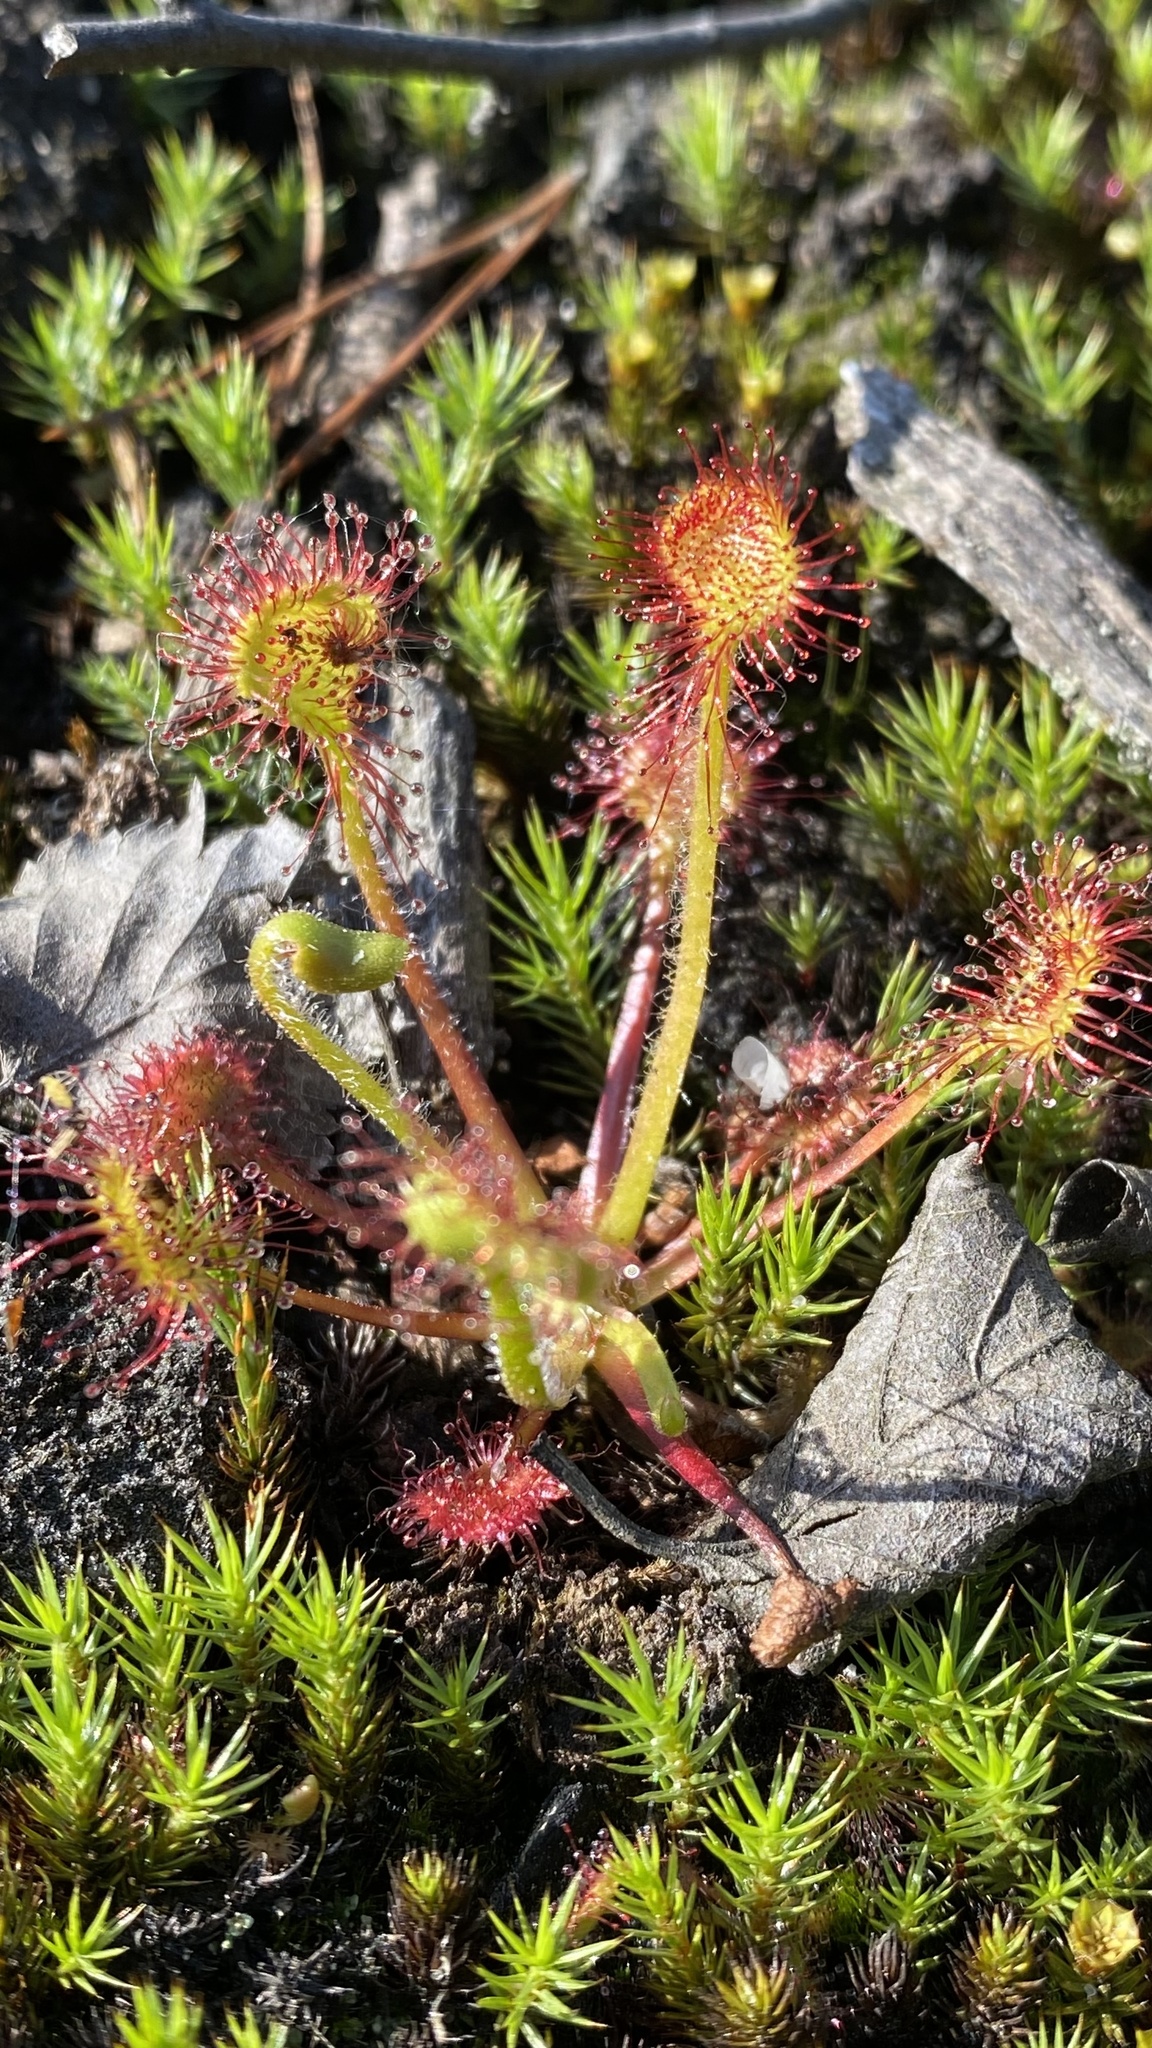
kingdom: Plantae
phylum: Tracheophyta
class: Magnoliopsida
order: Caryophyllales
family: Droseraceae
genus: Drosera
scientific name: Drosera rotundifolia
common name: Round-leaved sundew
